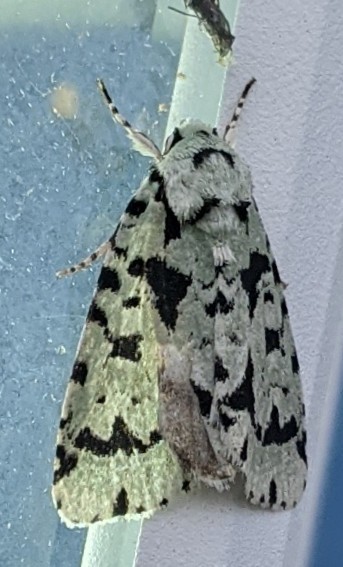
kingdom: Animalia
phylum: Arthropoda
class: Insecta
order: Lepidoptera
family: Noctuidae
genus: Acronicta
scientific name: Acronicta fallax
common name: Green marvel
